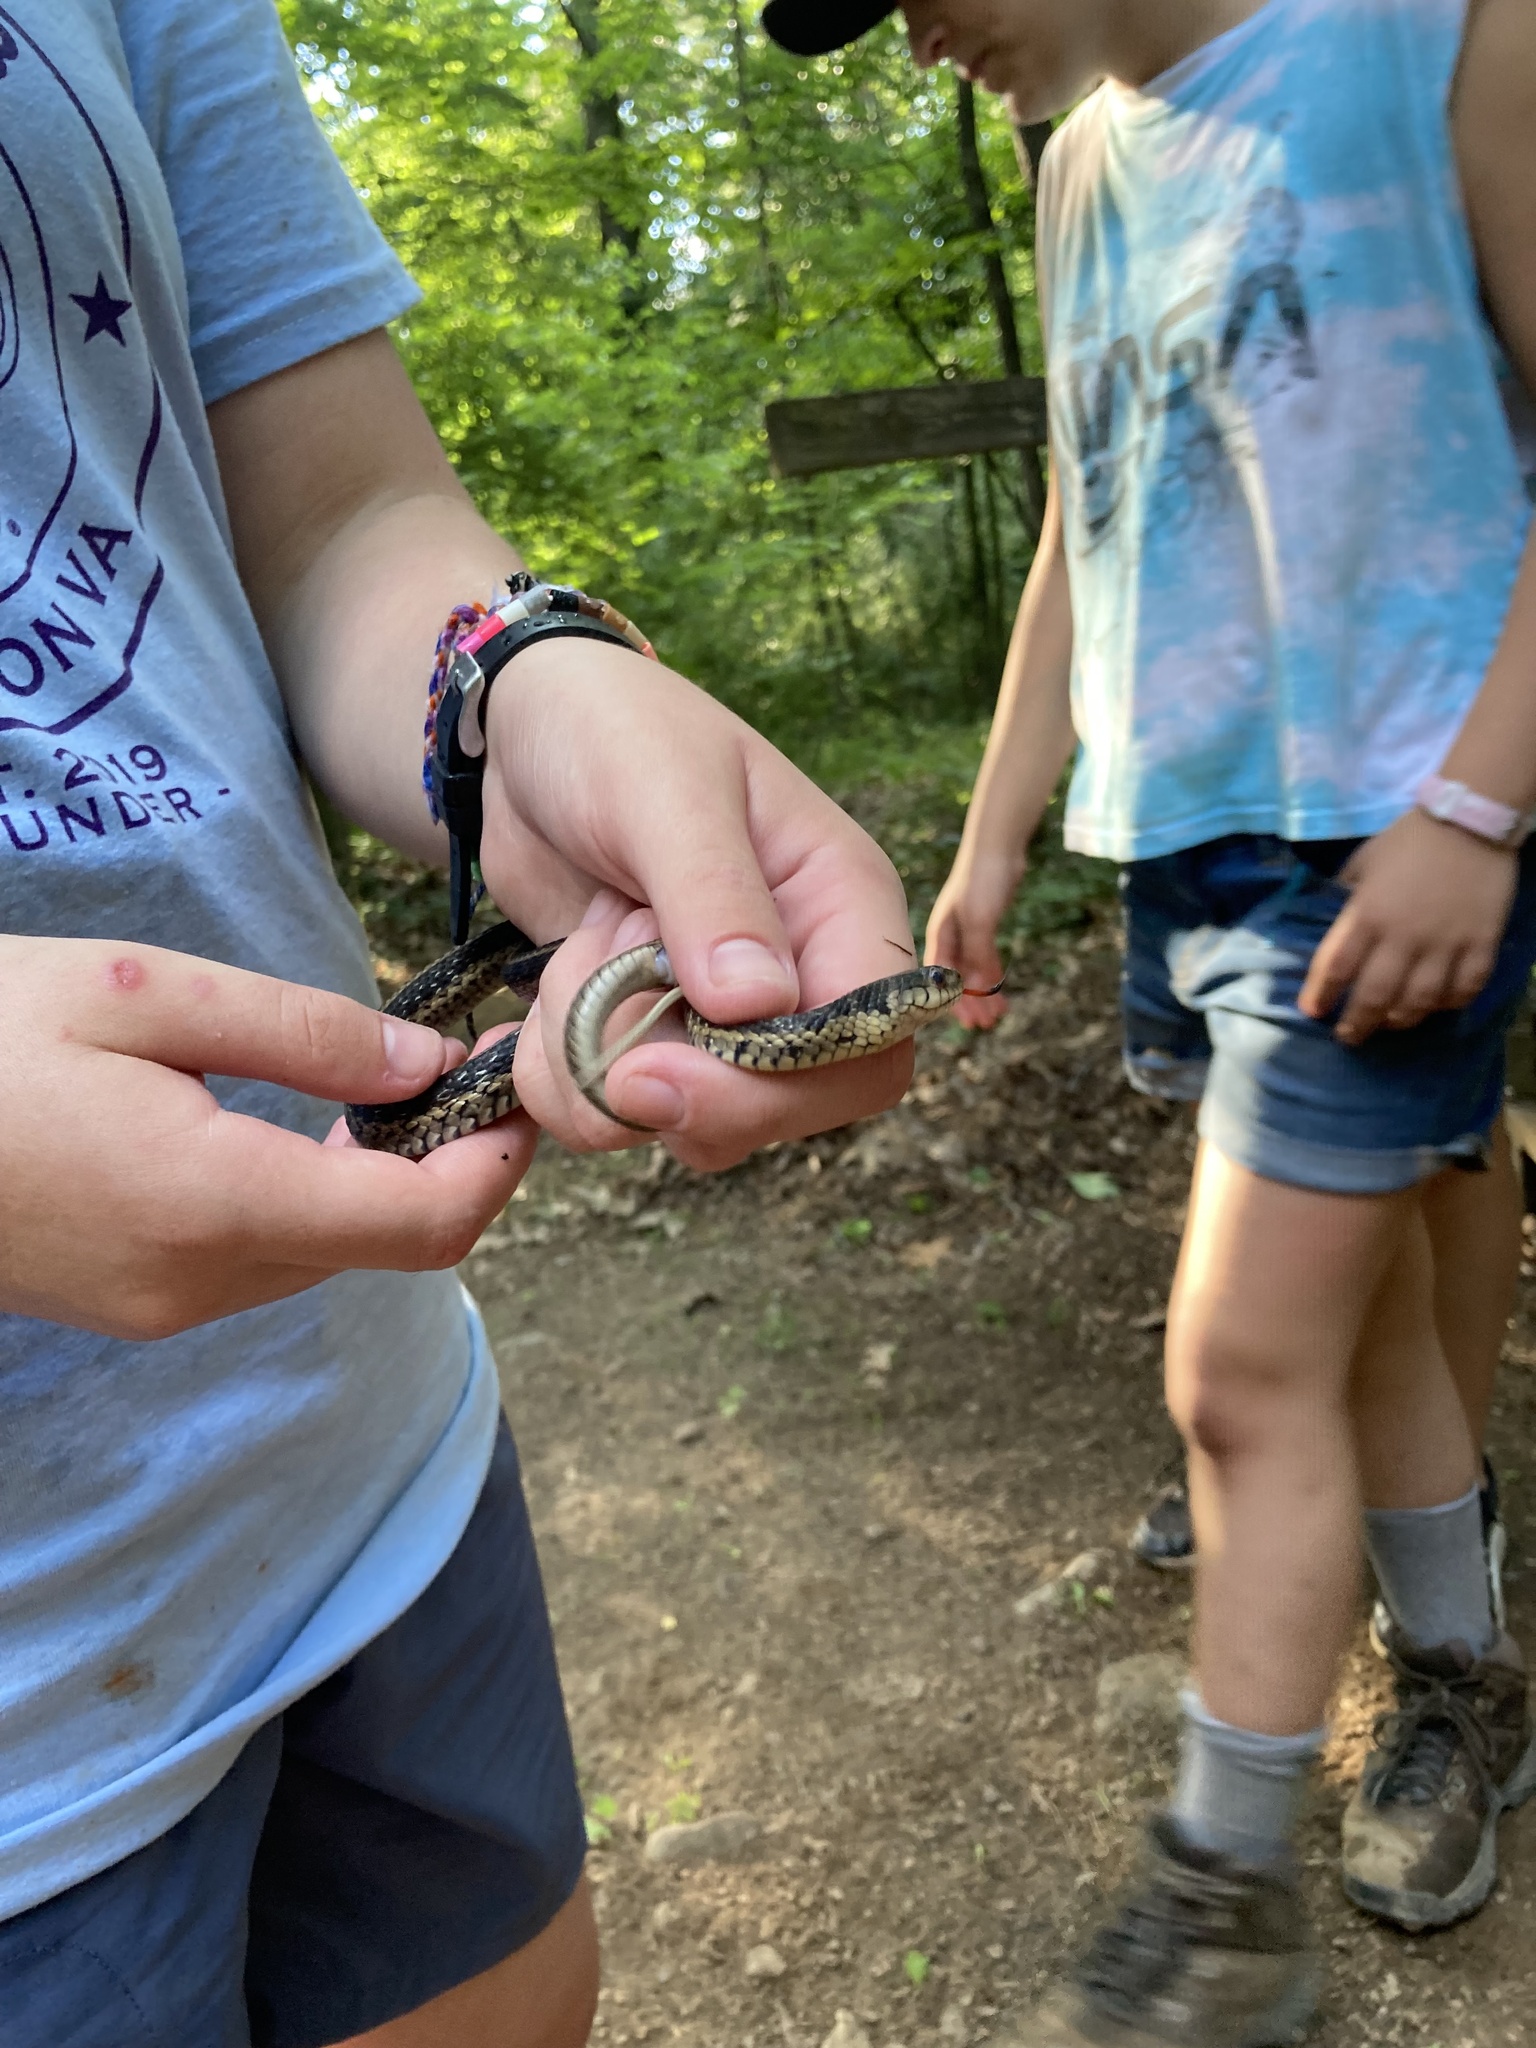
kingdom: Animalia
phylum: Chordata
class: Squamata
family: Colubridae
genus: Thamnophis
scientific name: Thamnophis sirtalis
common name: Common garter snake
